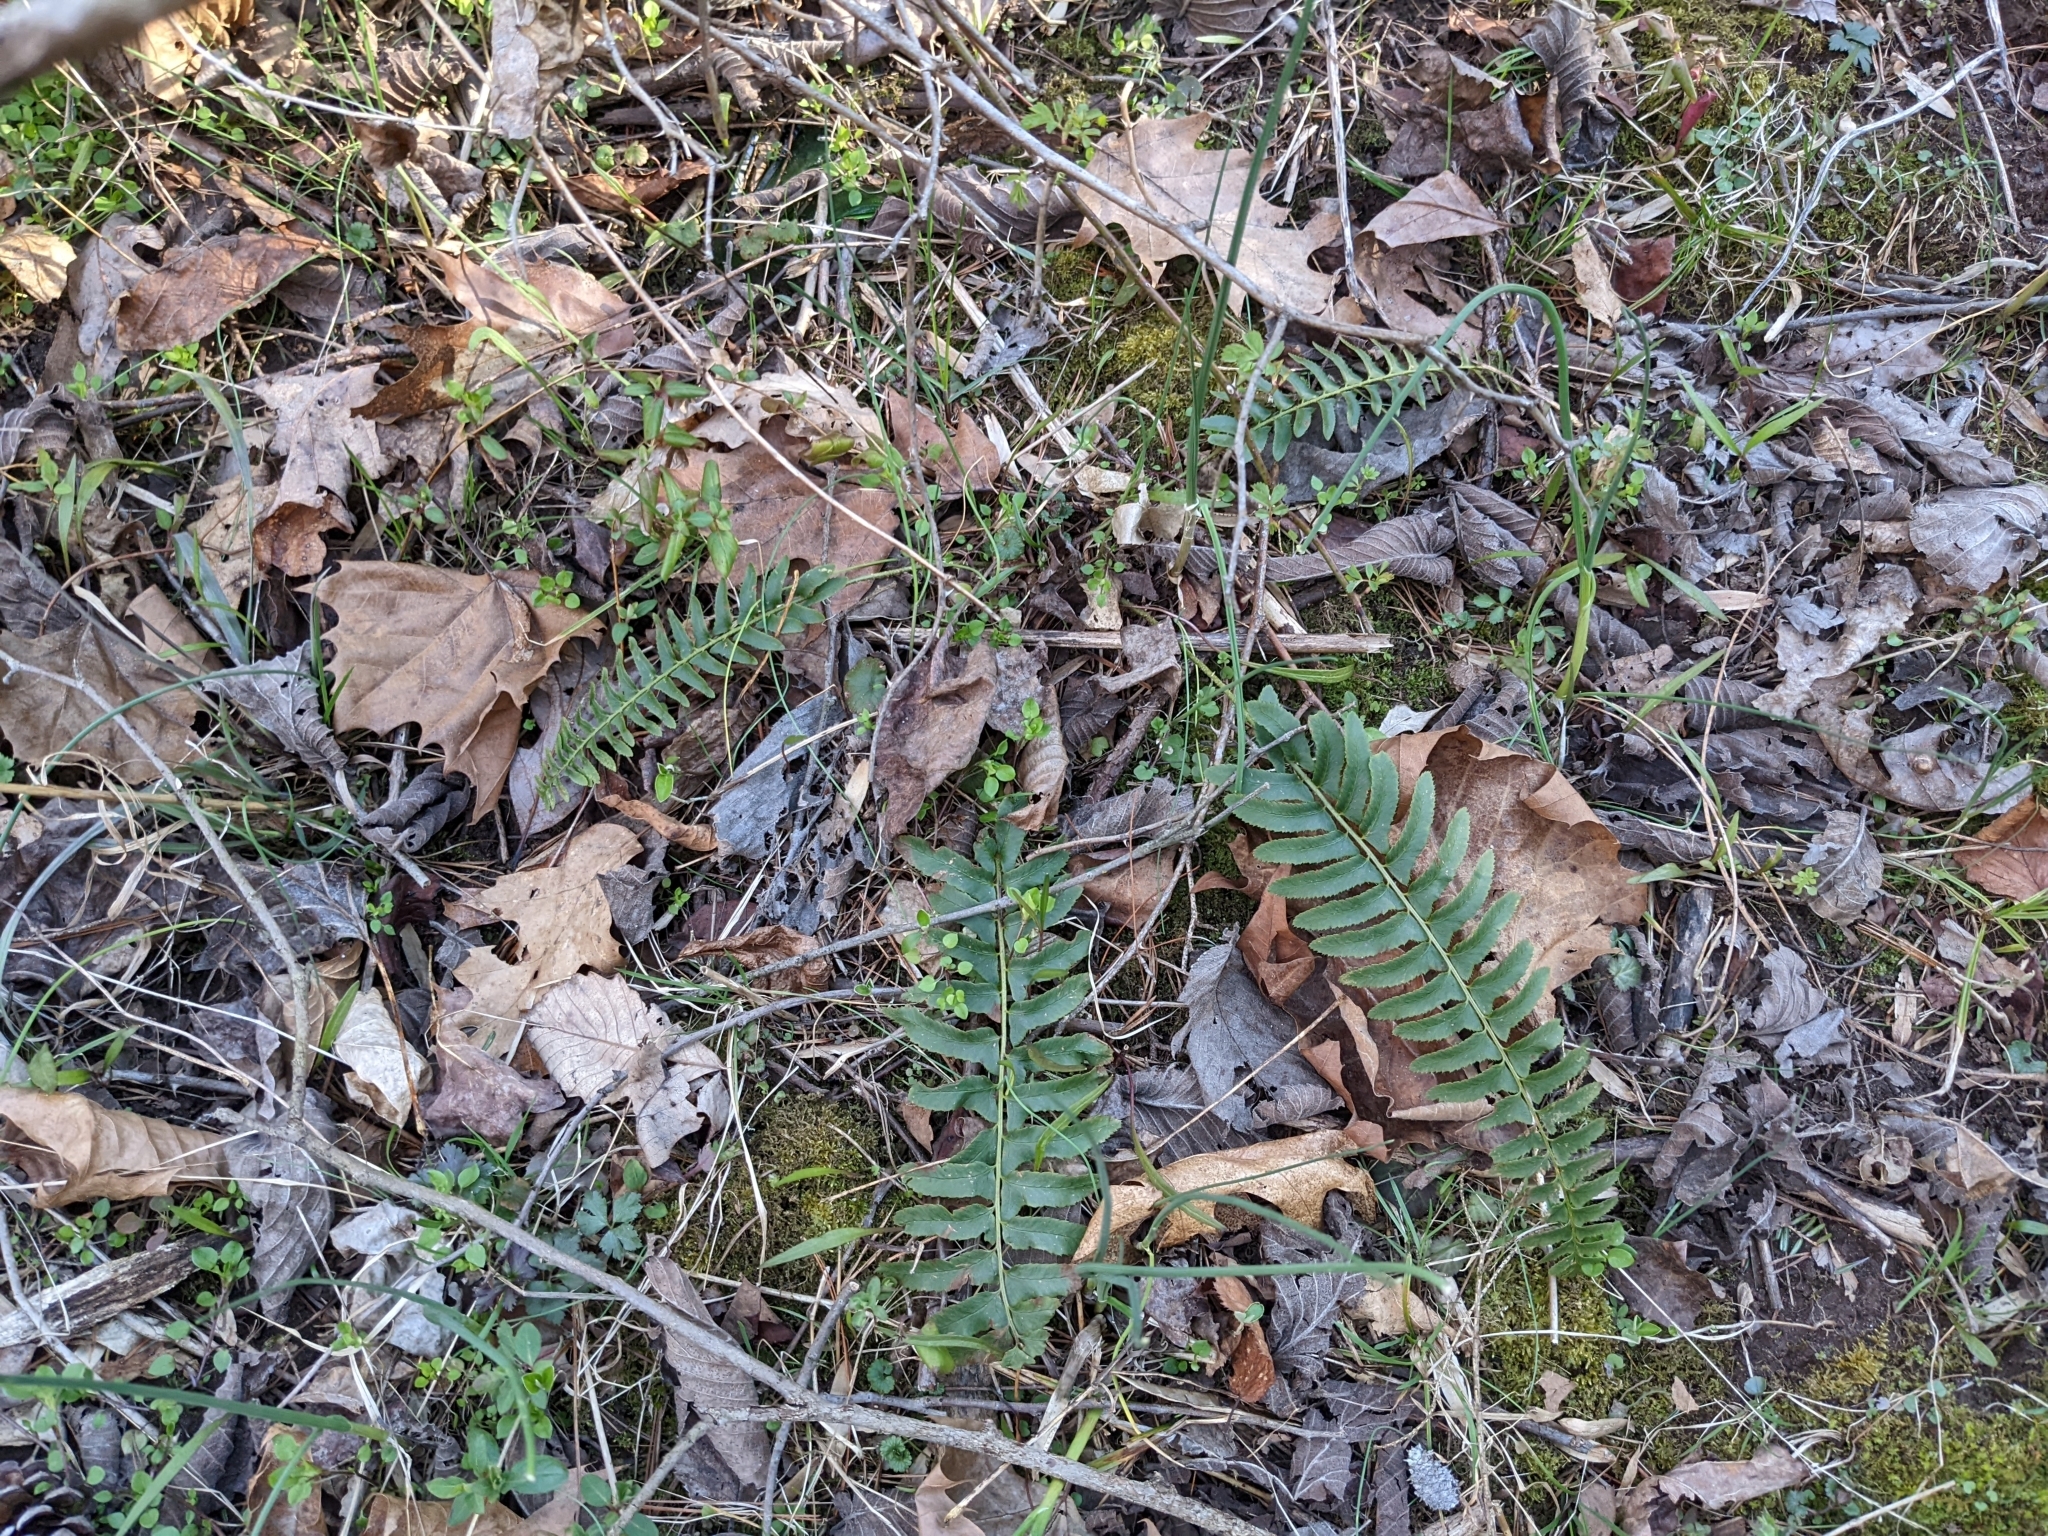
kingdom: Plantae
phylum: Tracheophyta
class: Polypodiopsida
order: Polypodiales
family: Dryopteridaceae
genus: Polystichum
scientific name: Polystichum acrostichoides
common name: Christmas fern
